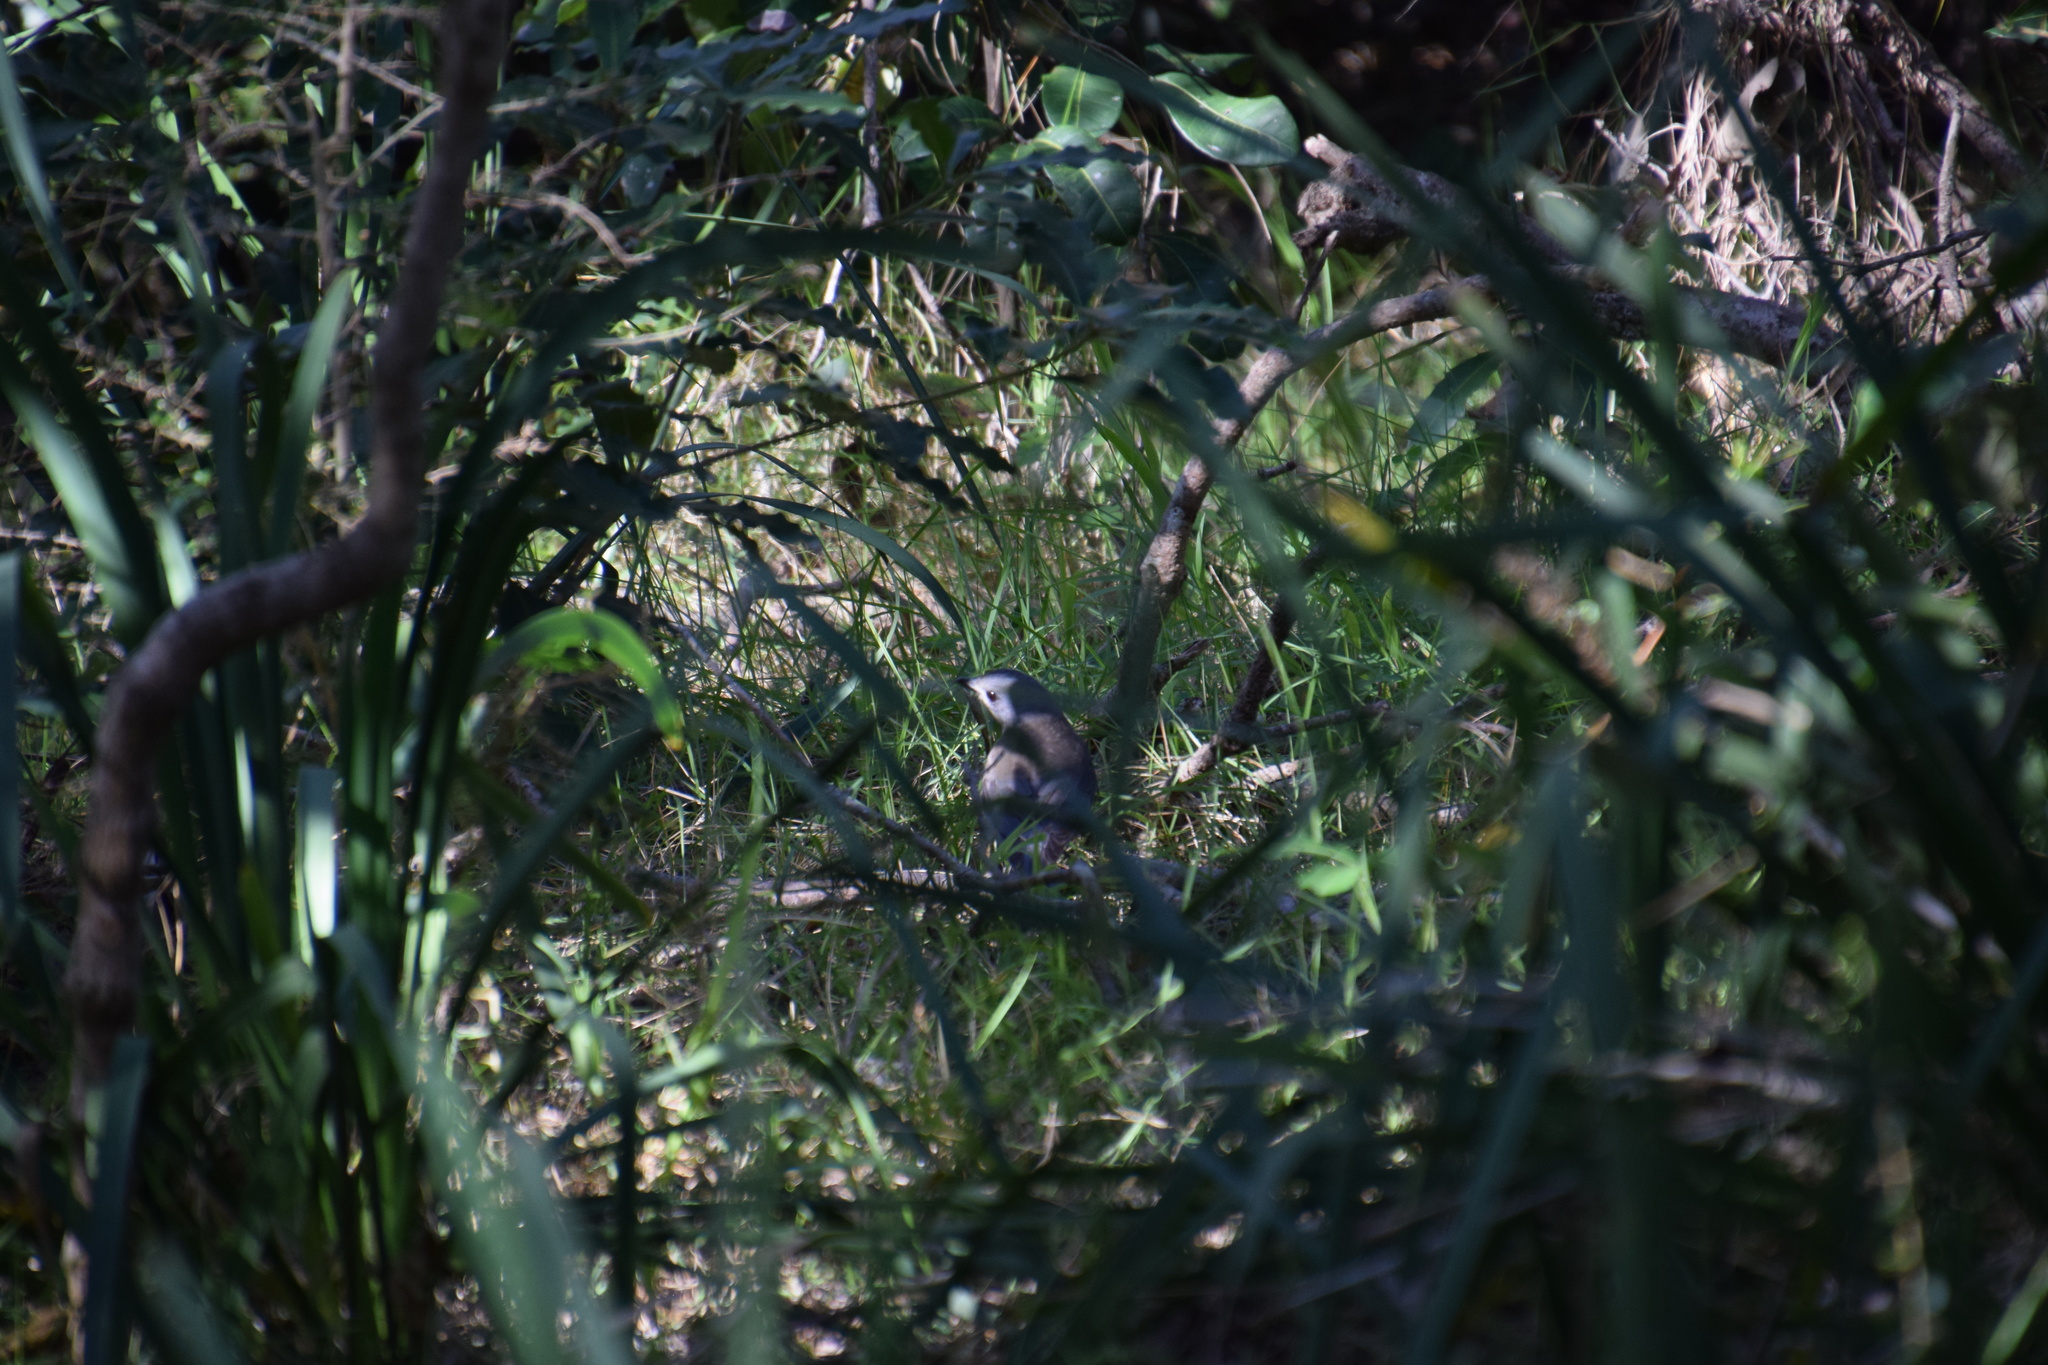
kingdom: Animalia
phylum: Chordata
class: Aves
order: Passeriformes
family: Pachycephalidae
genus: Colluricincla
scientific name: Colluricincla harmonica
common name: Grey shrikethrush
